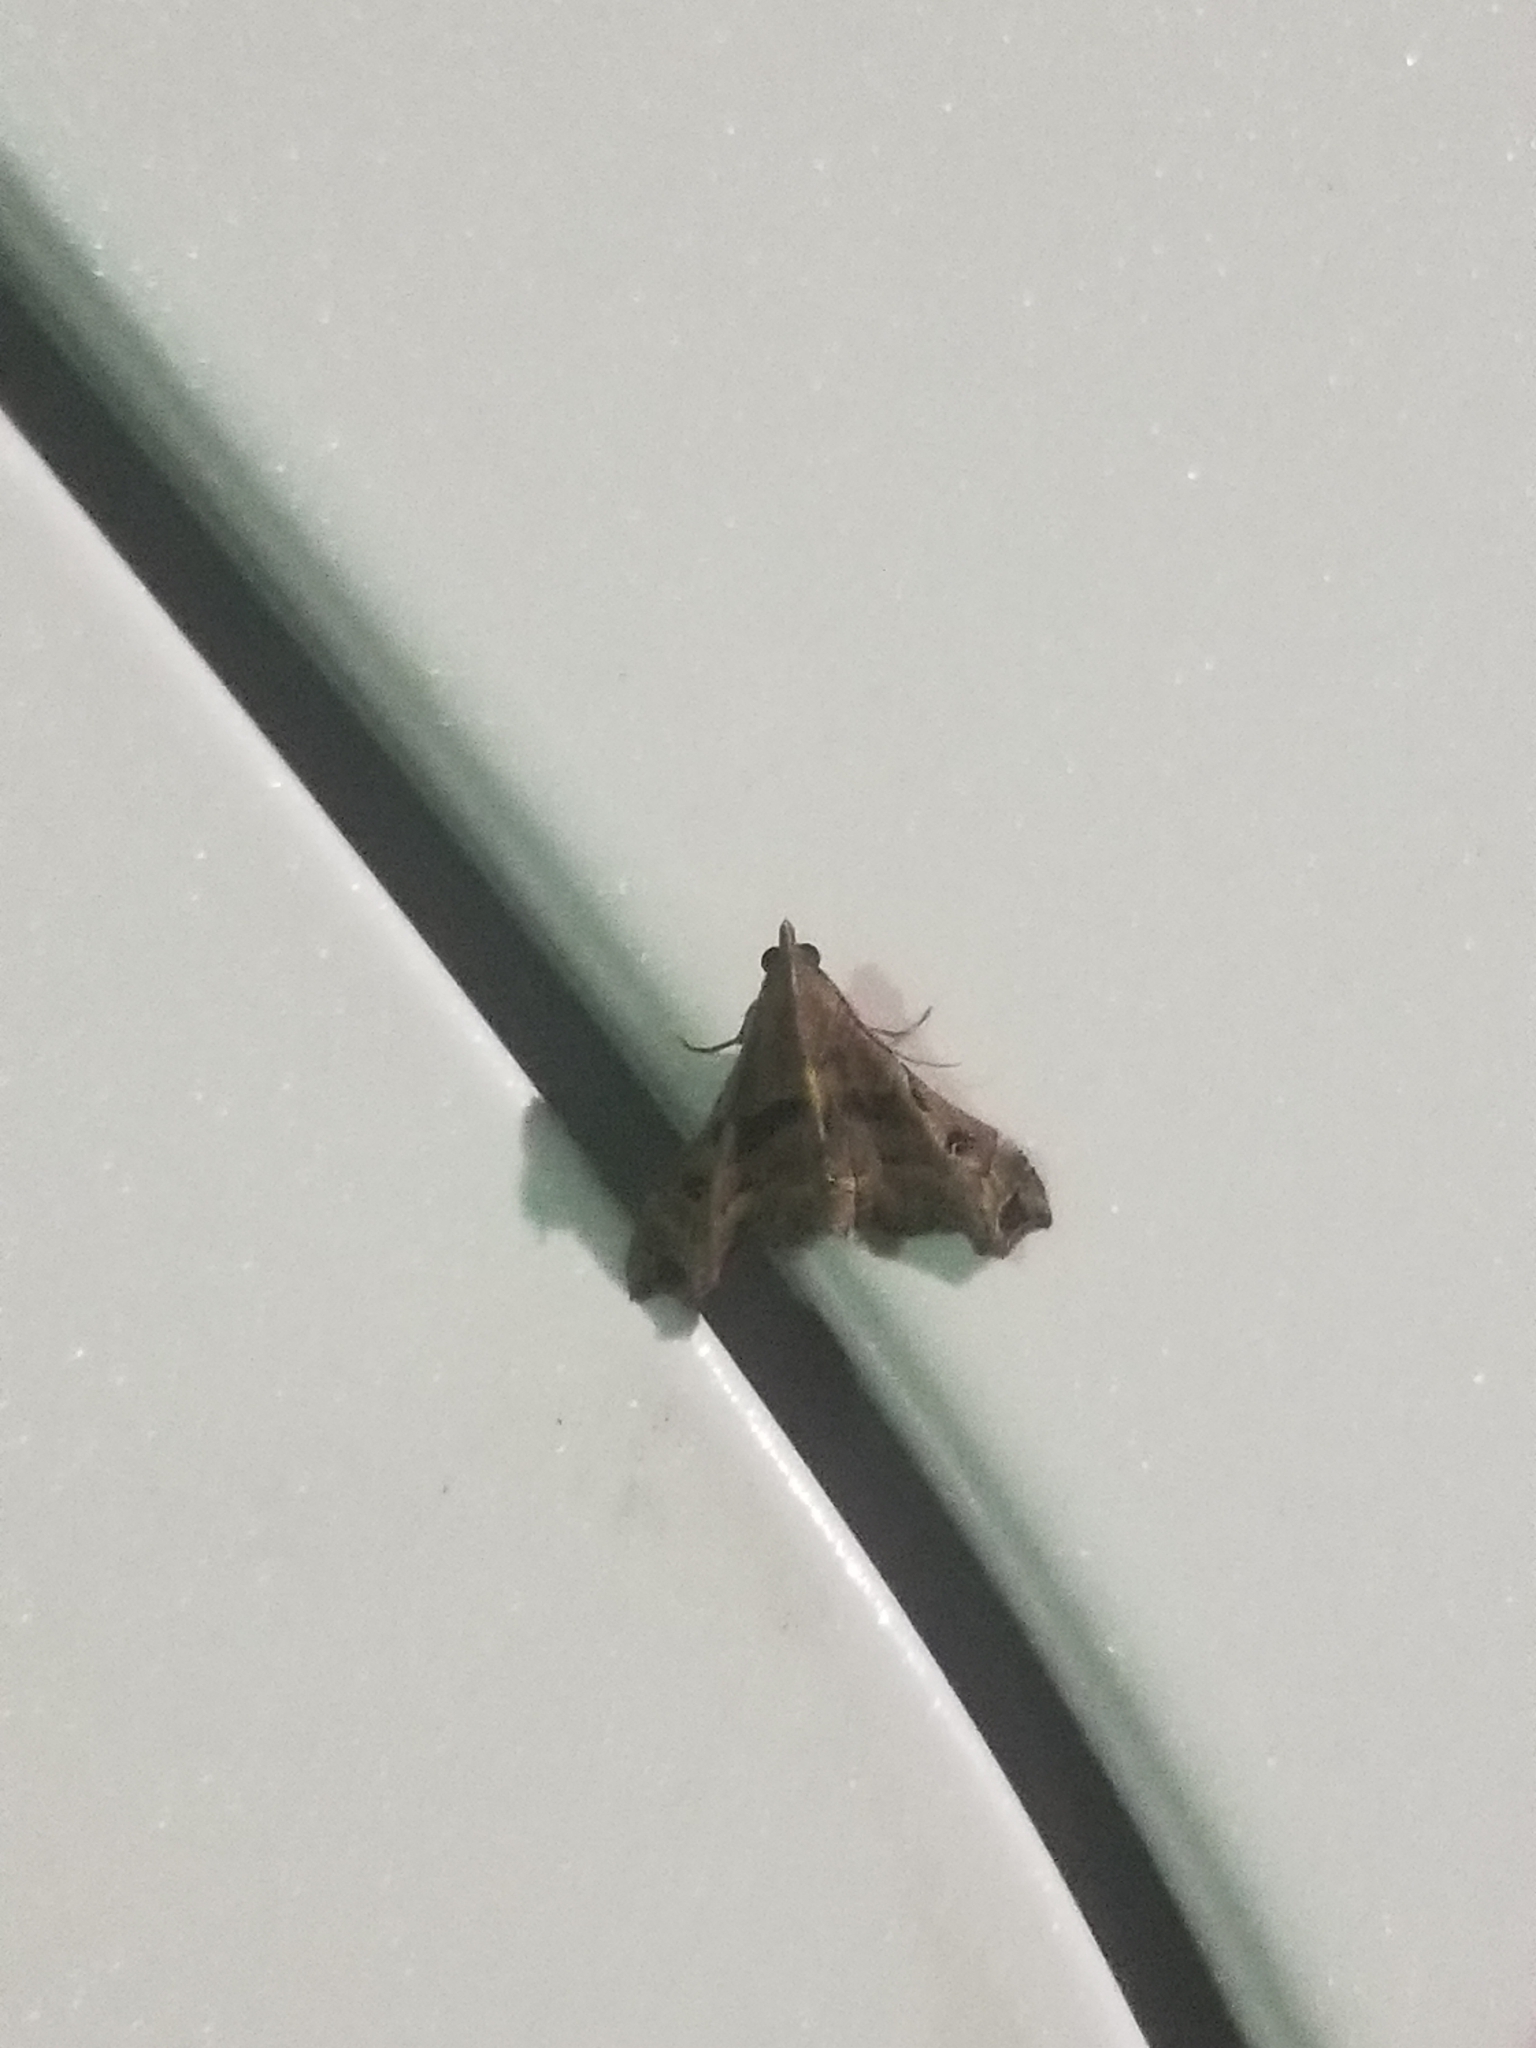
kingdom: Animalia
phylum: Arthropoda
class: Insecta
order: Lepidoptera
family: Erebidae
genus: Palthis
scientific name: Palthis asopialis
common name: Faint-spotted palthis moth
